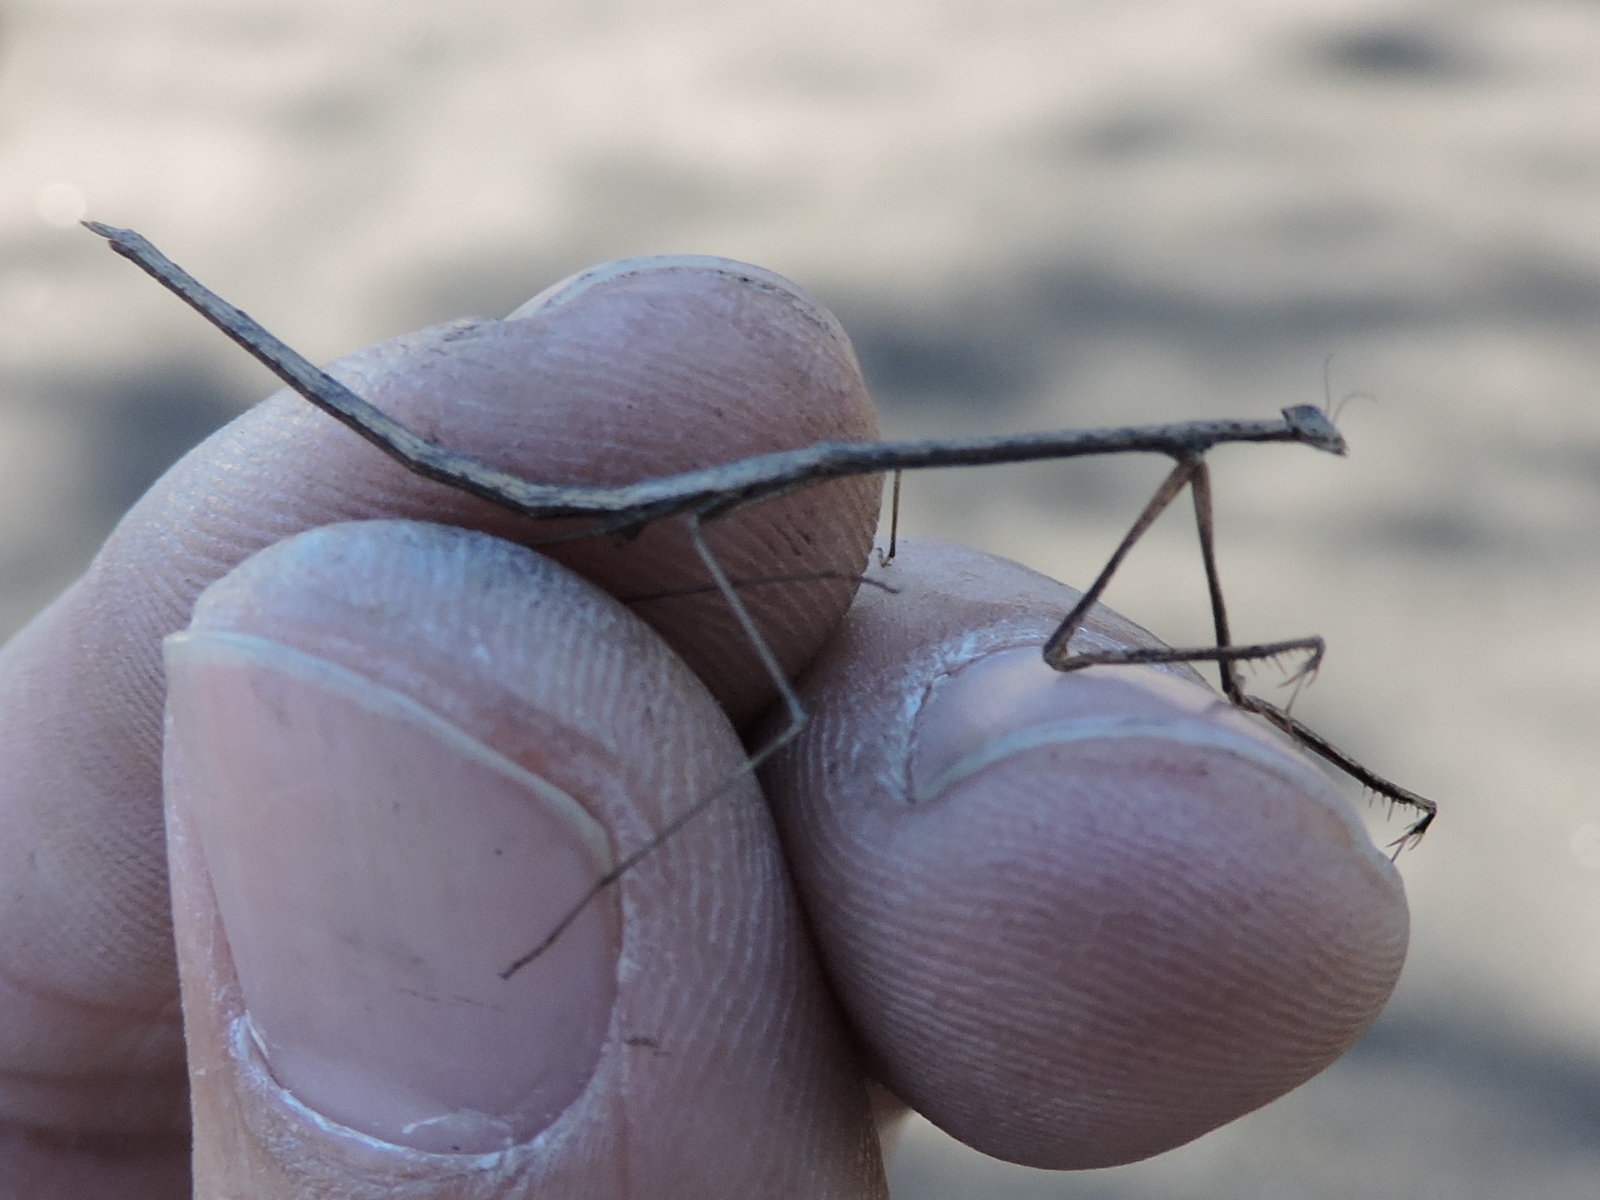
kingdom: Animalia
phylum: Arthropoda
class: Insecta
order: Mantodea
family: Thespidae
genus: Thesprotia
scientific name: Thesprotia graminis
